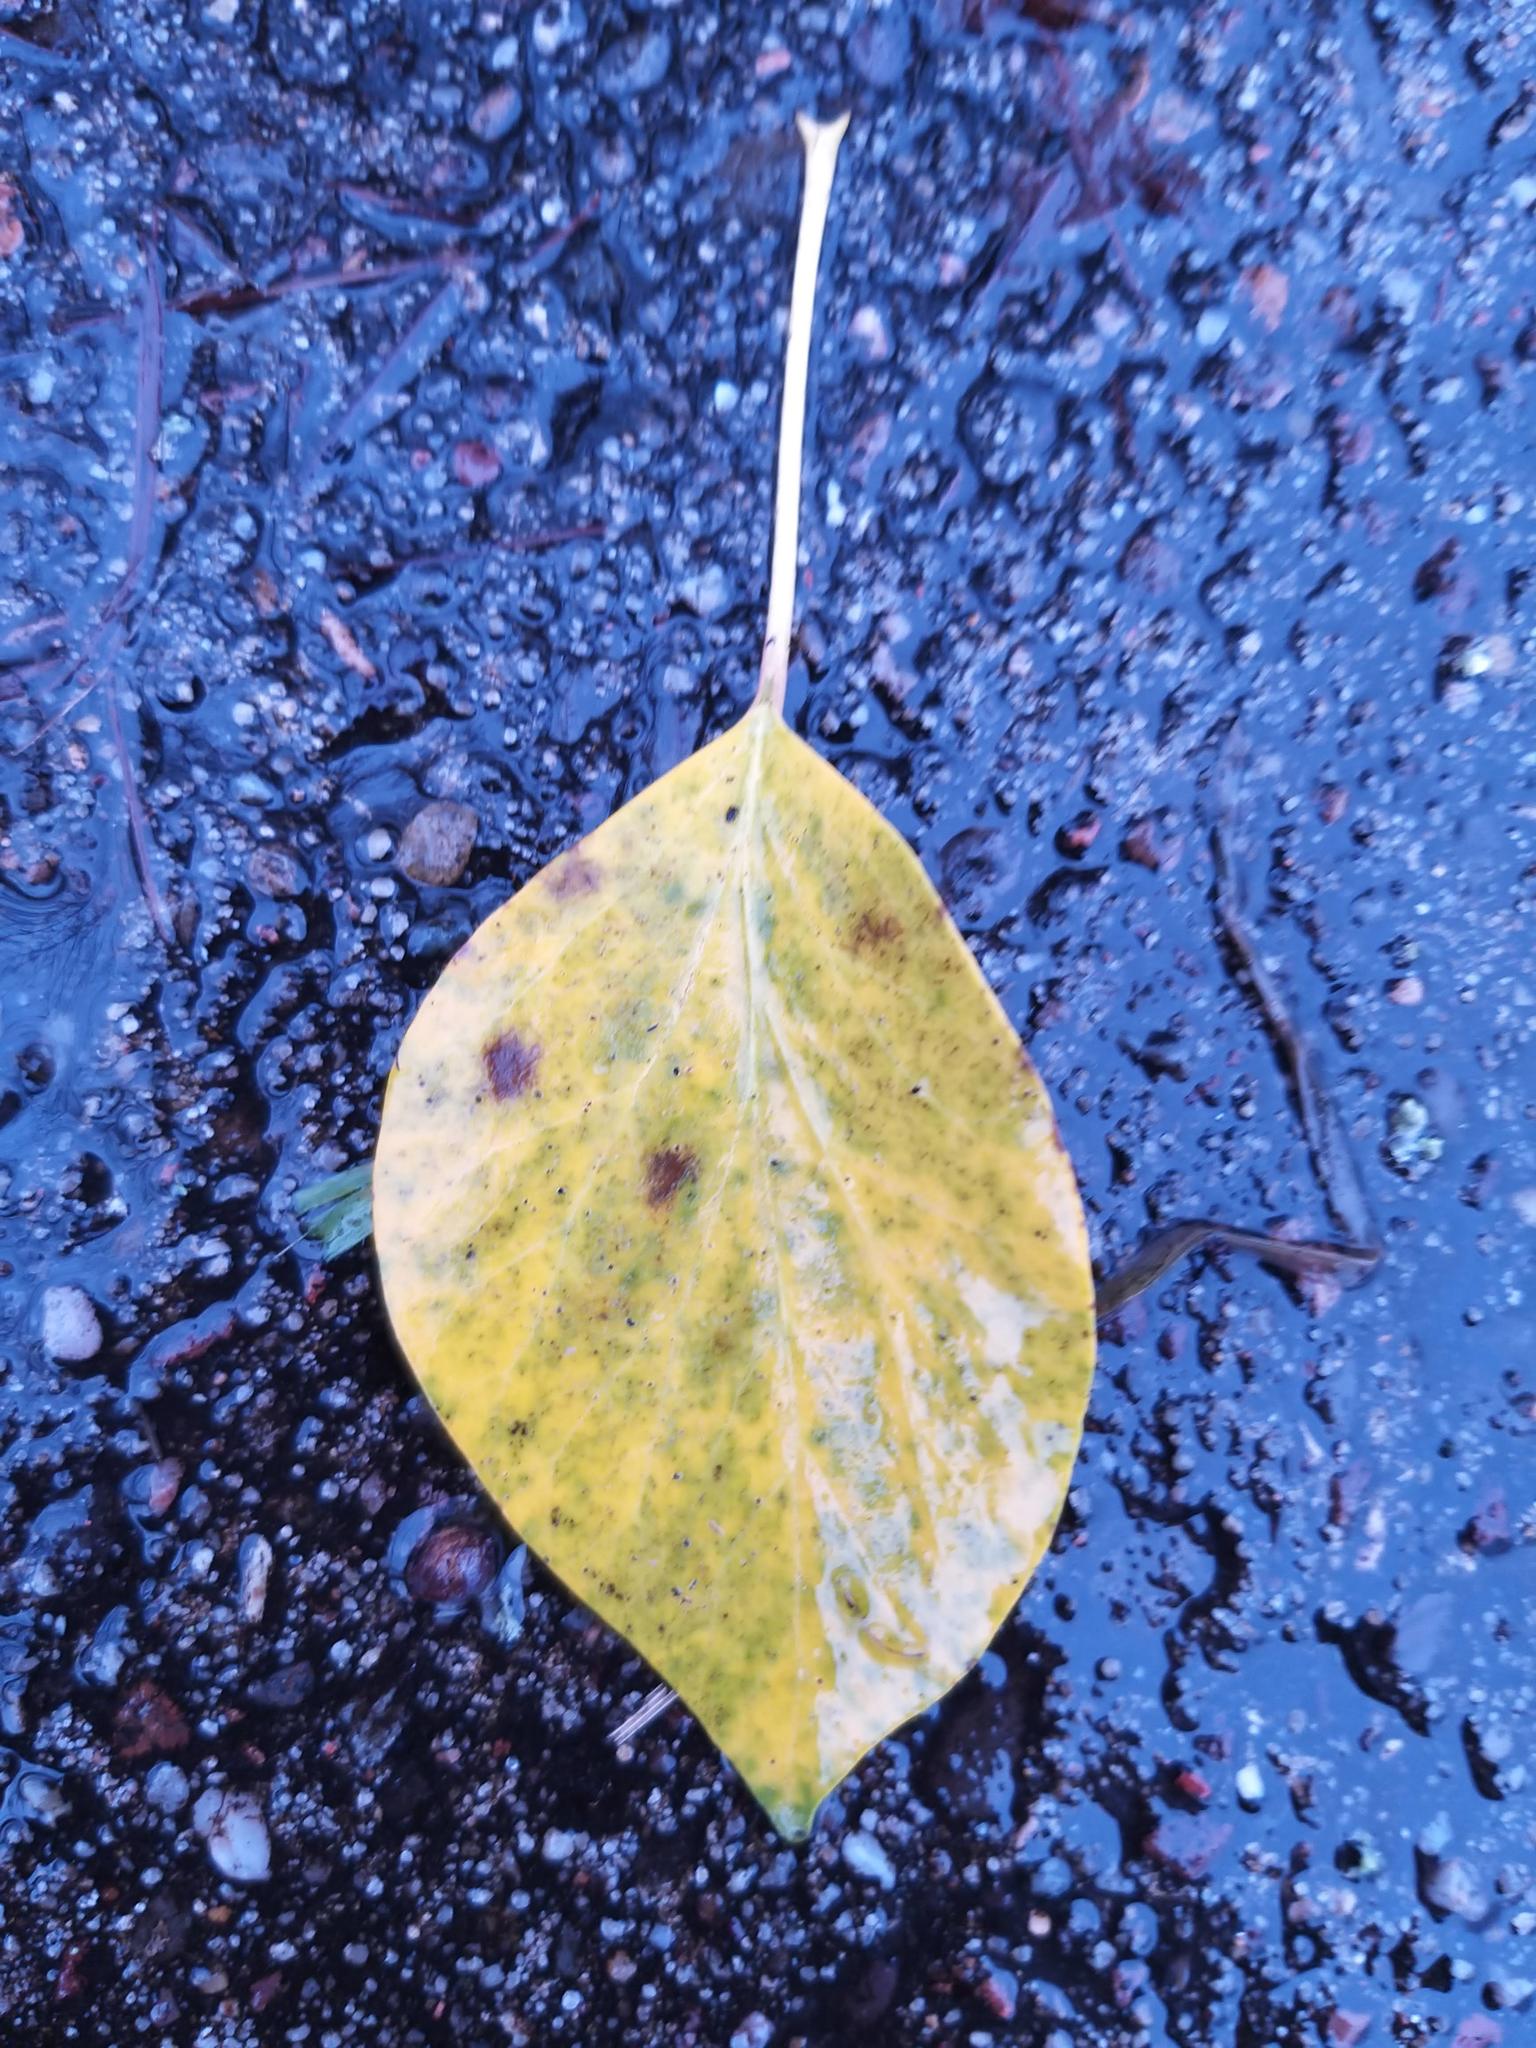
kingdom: Plantae
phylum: Tracheophyta
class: Magnoliopsida
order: Apiales
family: Araliaceae
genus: Hedera
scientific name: Hedera helix
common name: Ivy
